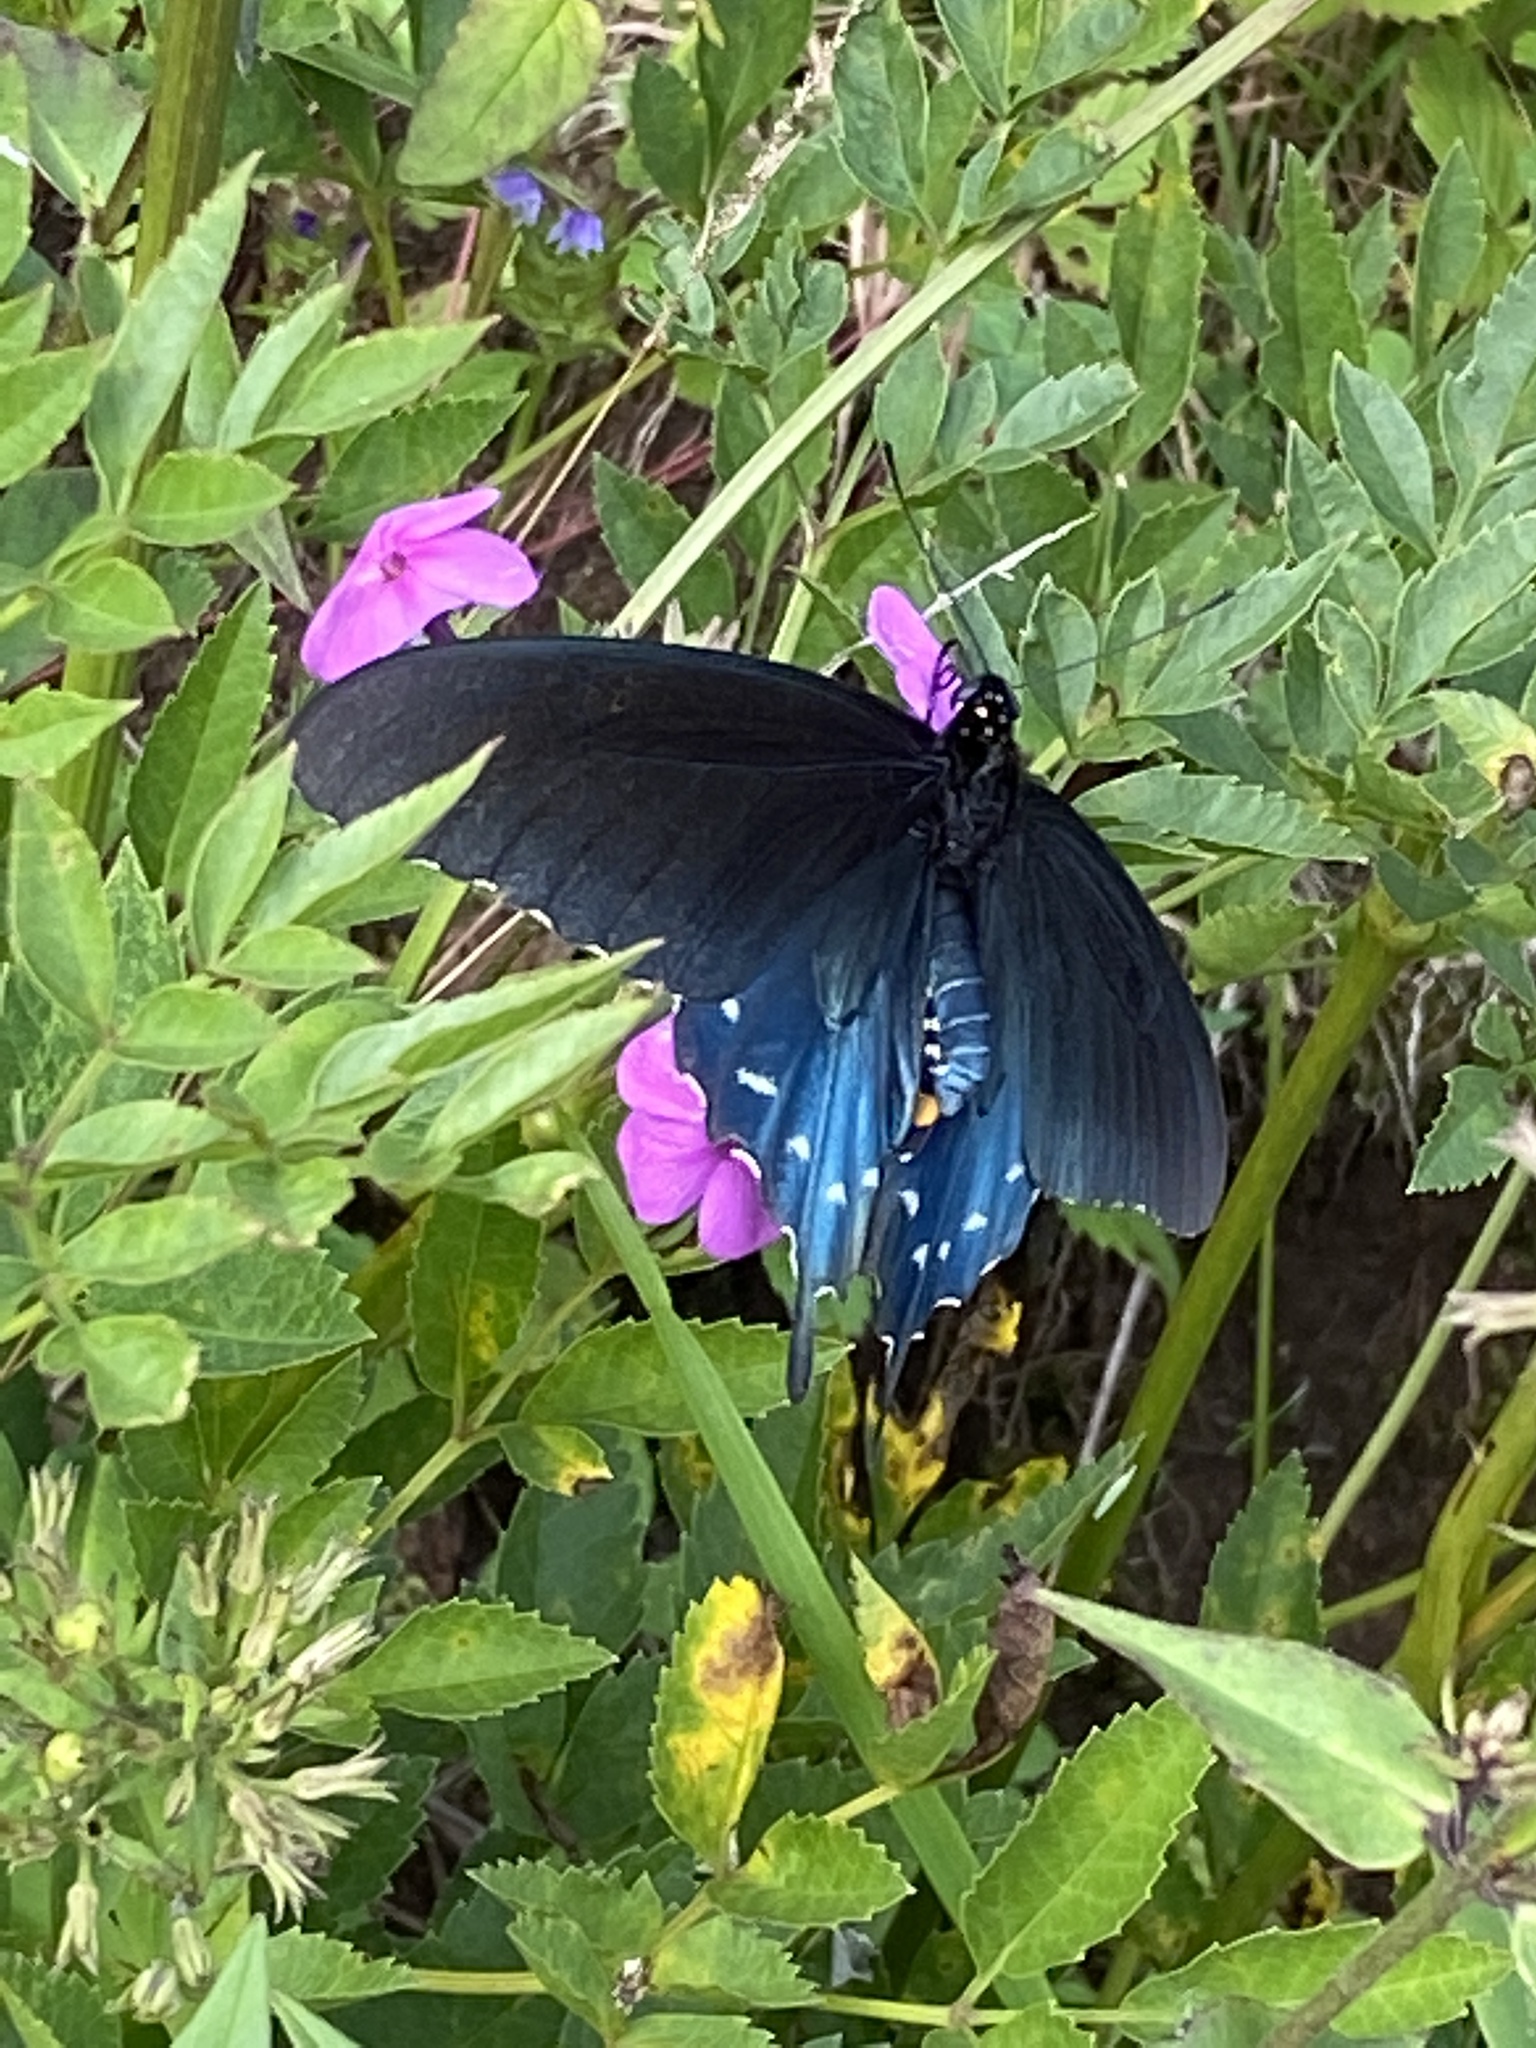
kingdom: Animalia
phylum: Arthropoda
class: Insecta
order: Lepidoptera
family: Papilionidae
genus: Battus
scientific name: Battus philenor
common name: Pipevine swallowtail
